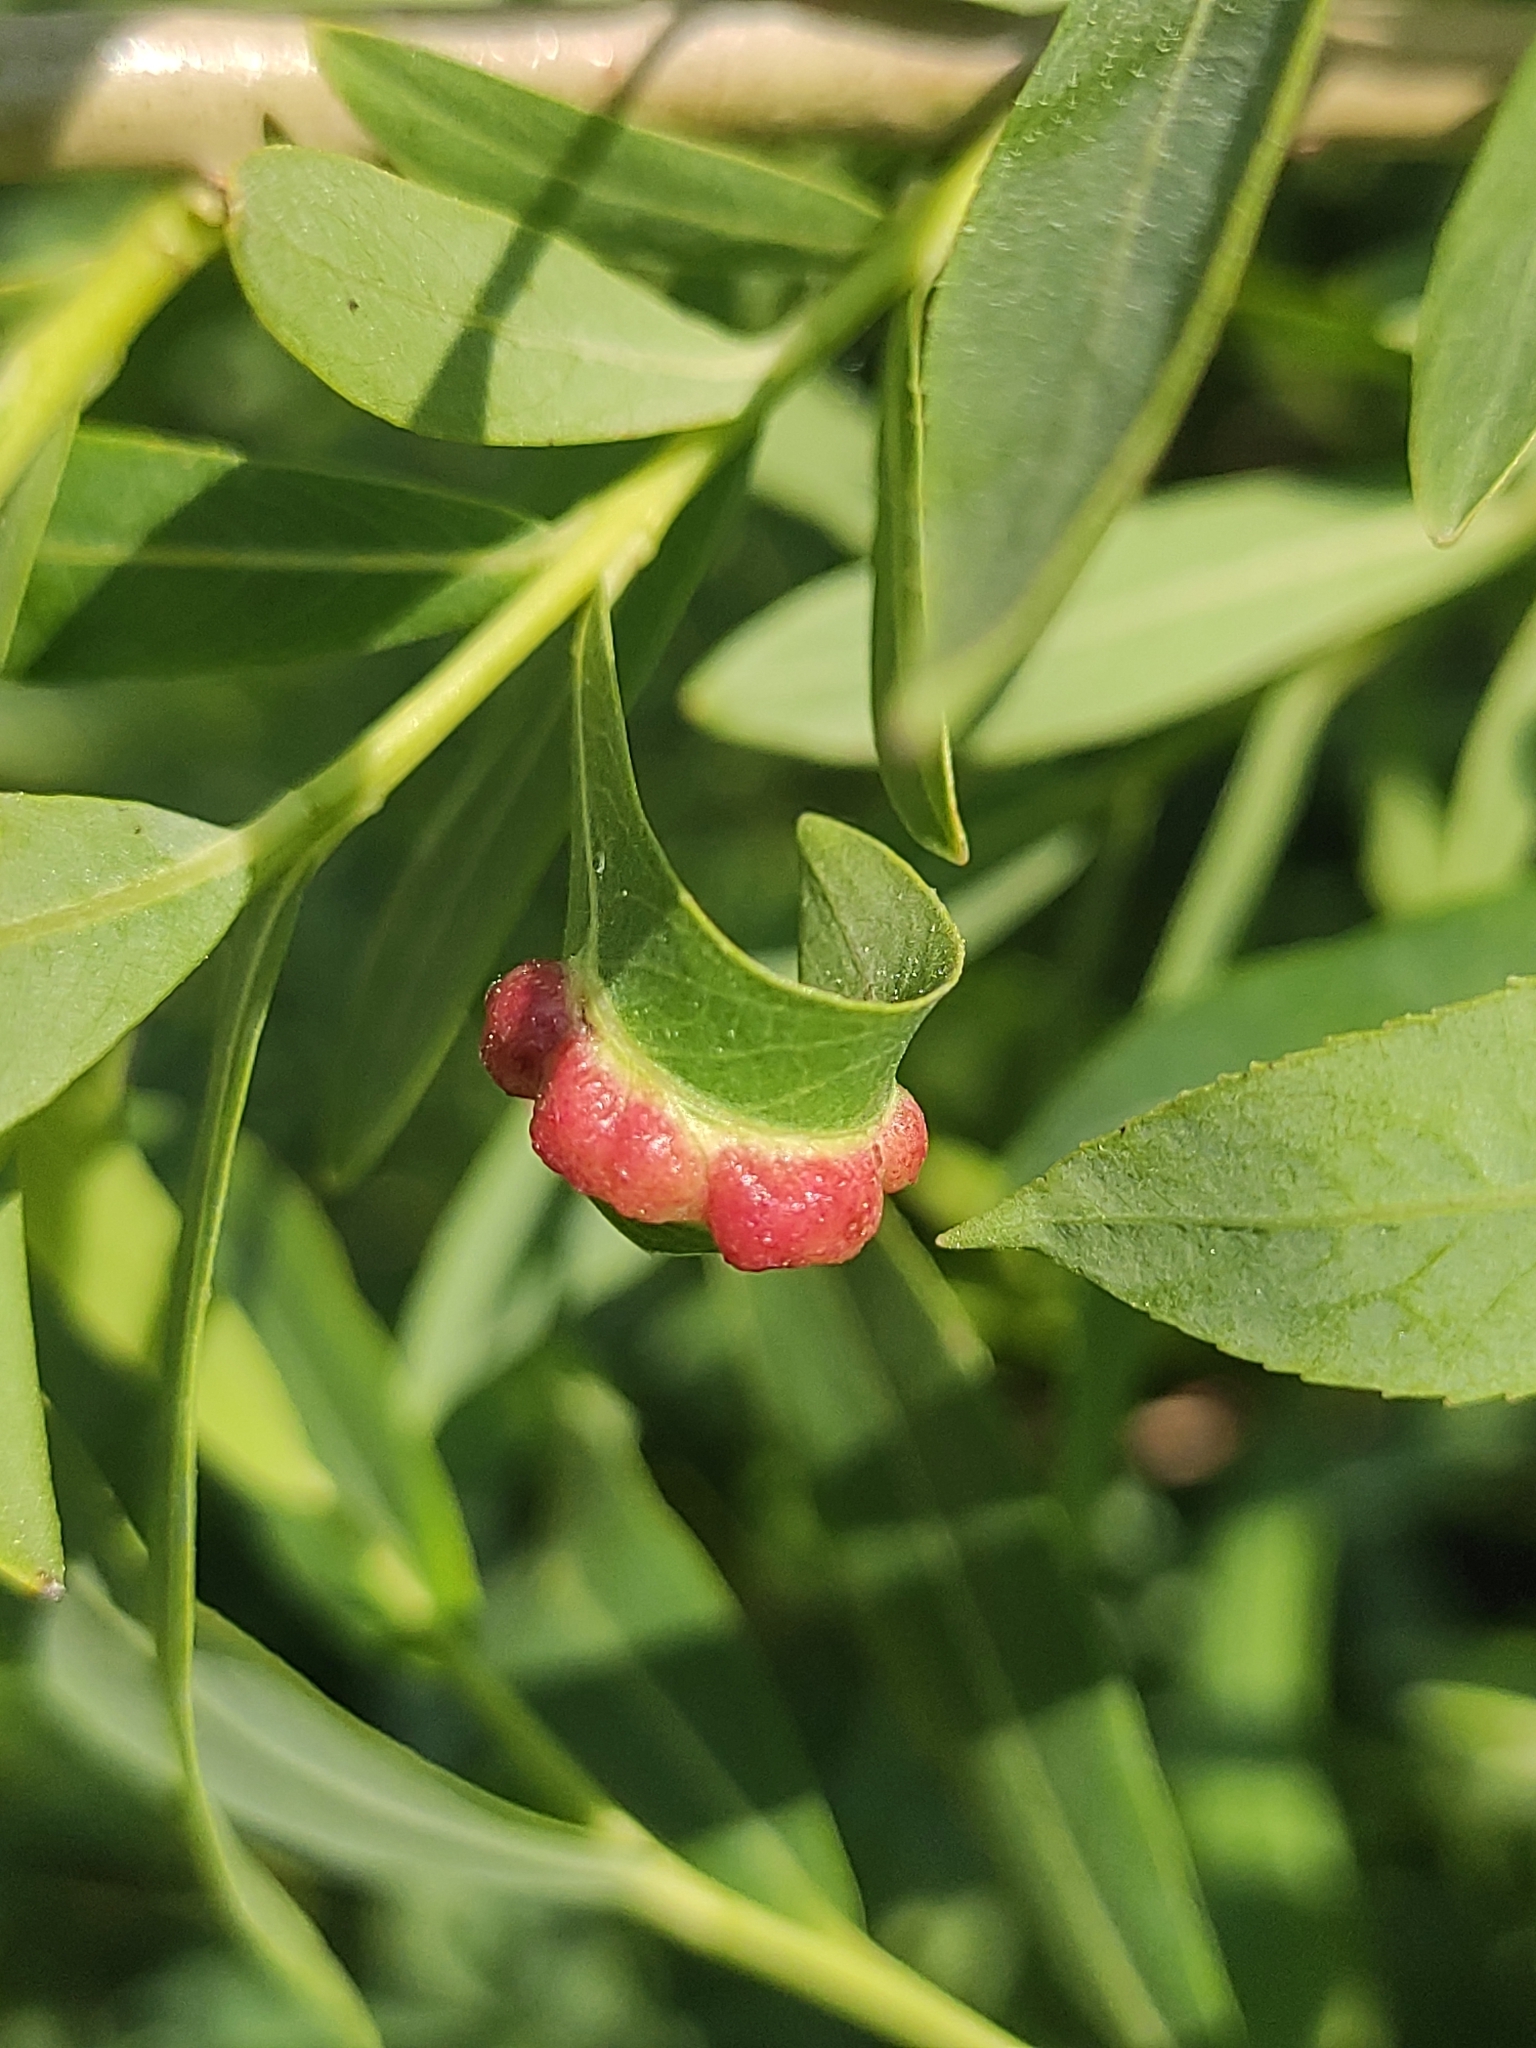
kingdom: Animalia
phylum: Arthropoda
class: Insecta
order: Hymenoptera
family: Tenthredinidae
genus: Pontania
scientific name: Pontania virilis
